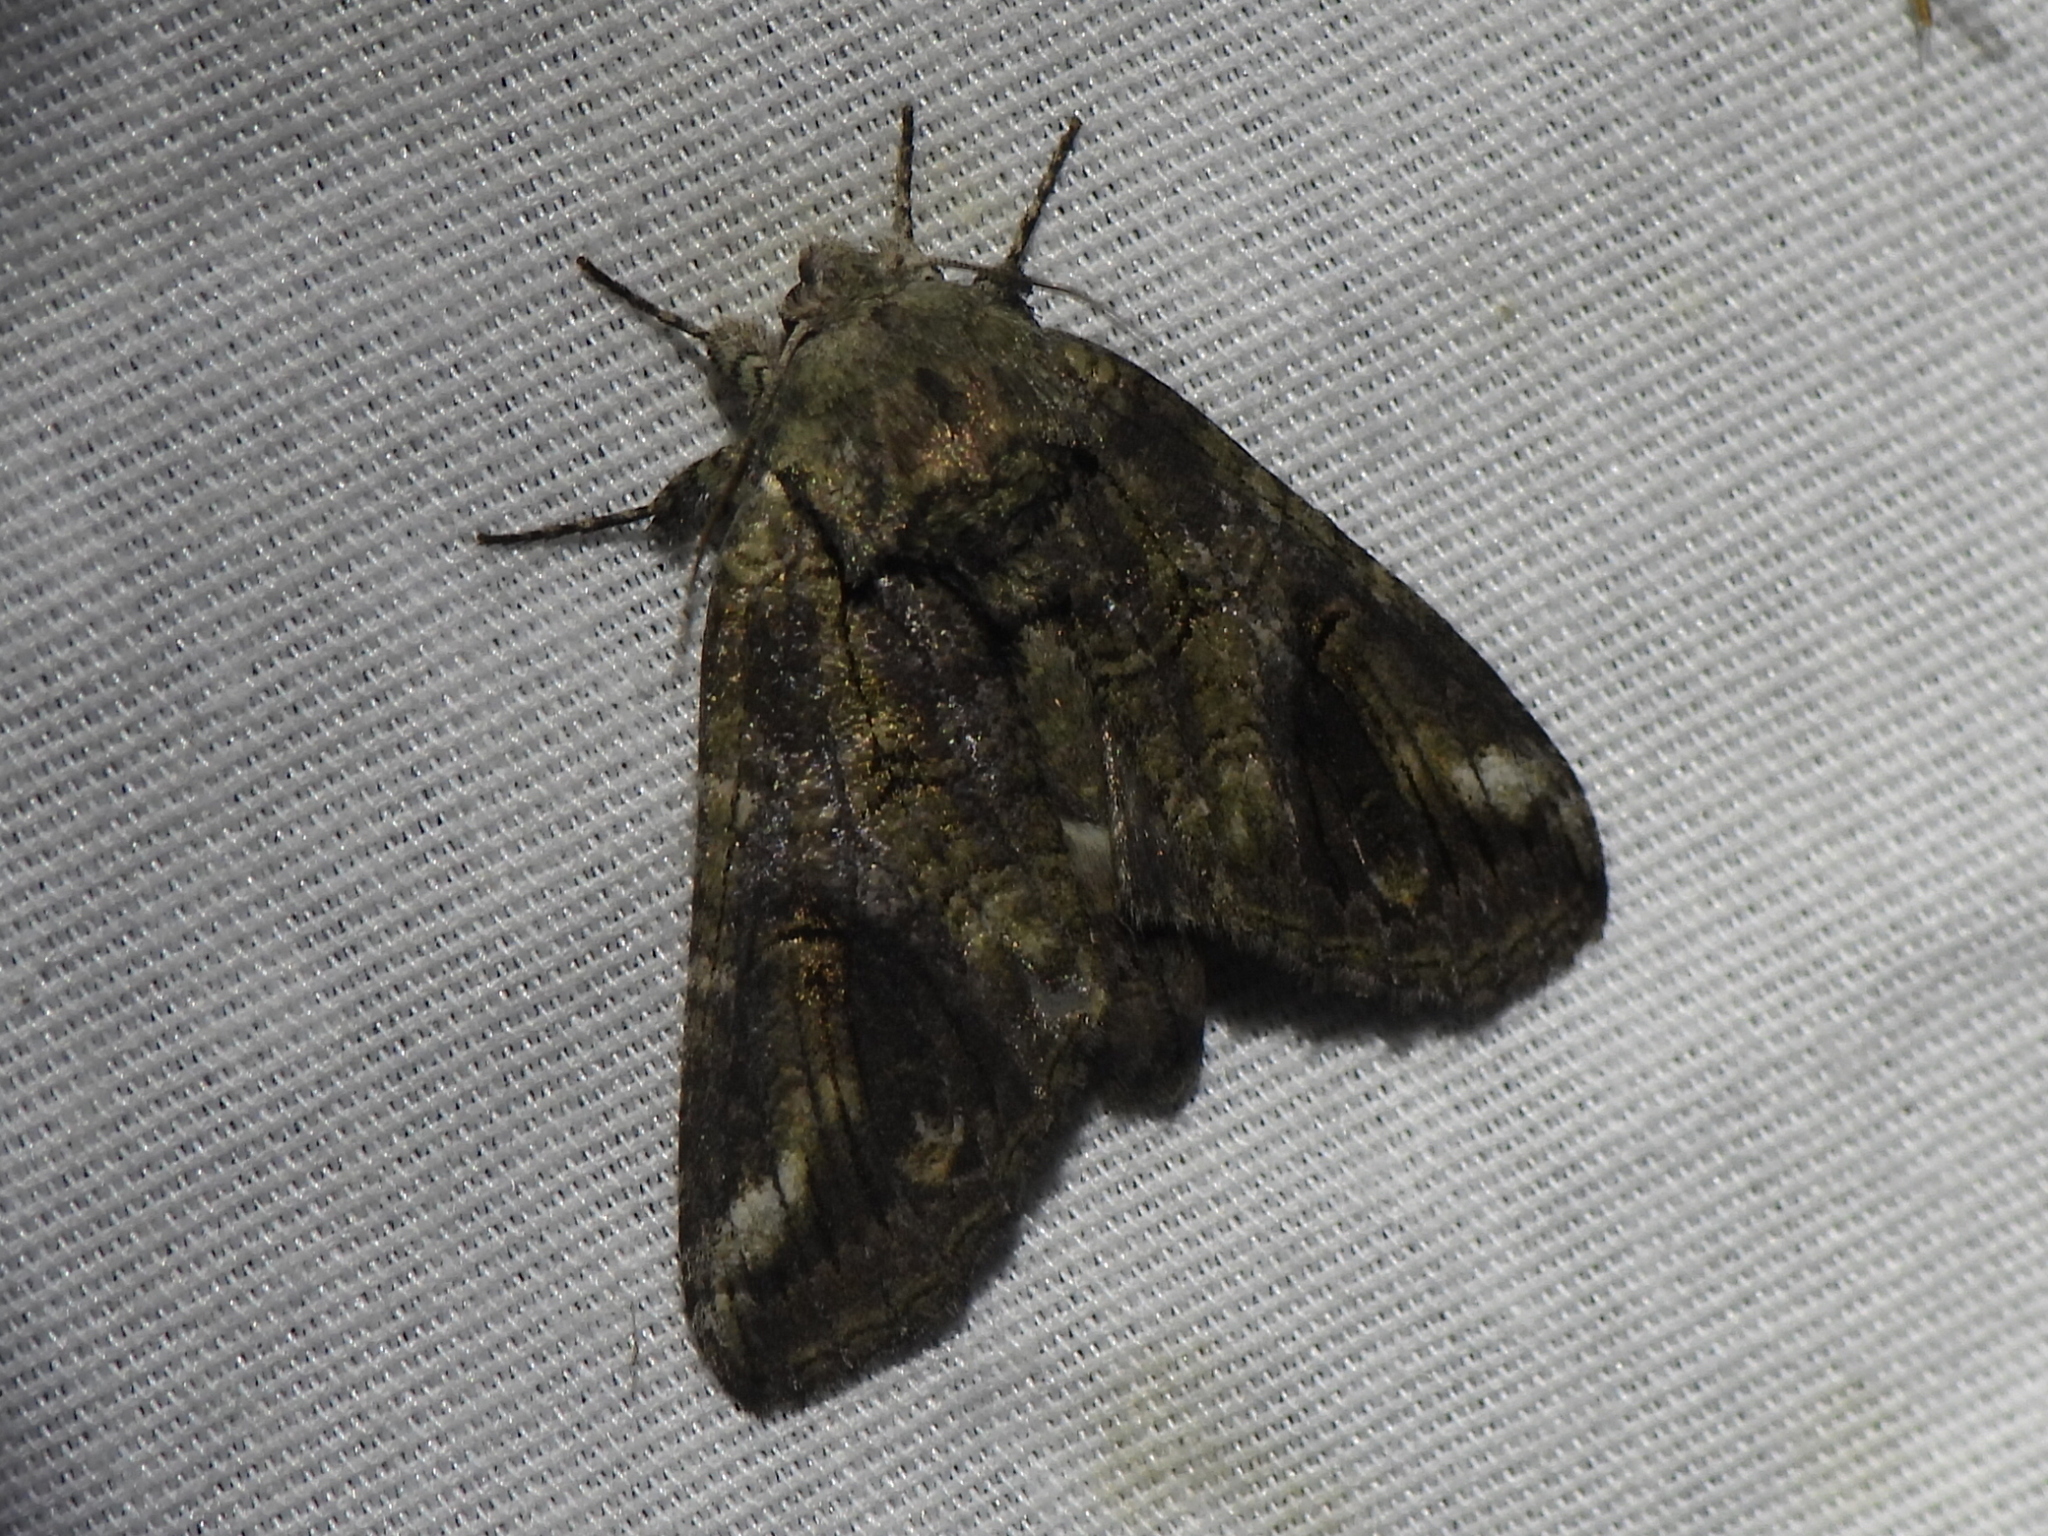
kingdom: Animalia
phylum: Arthropoda
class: Insecta
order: Lepidoptera
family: Notodontidae
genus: Heterocampa
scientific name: Heterocampa obliqua
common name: Oblique heterocampa
